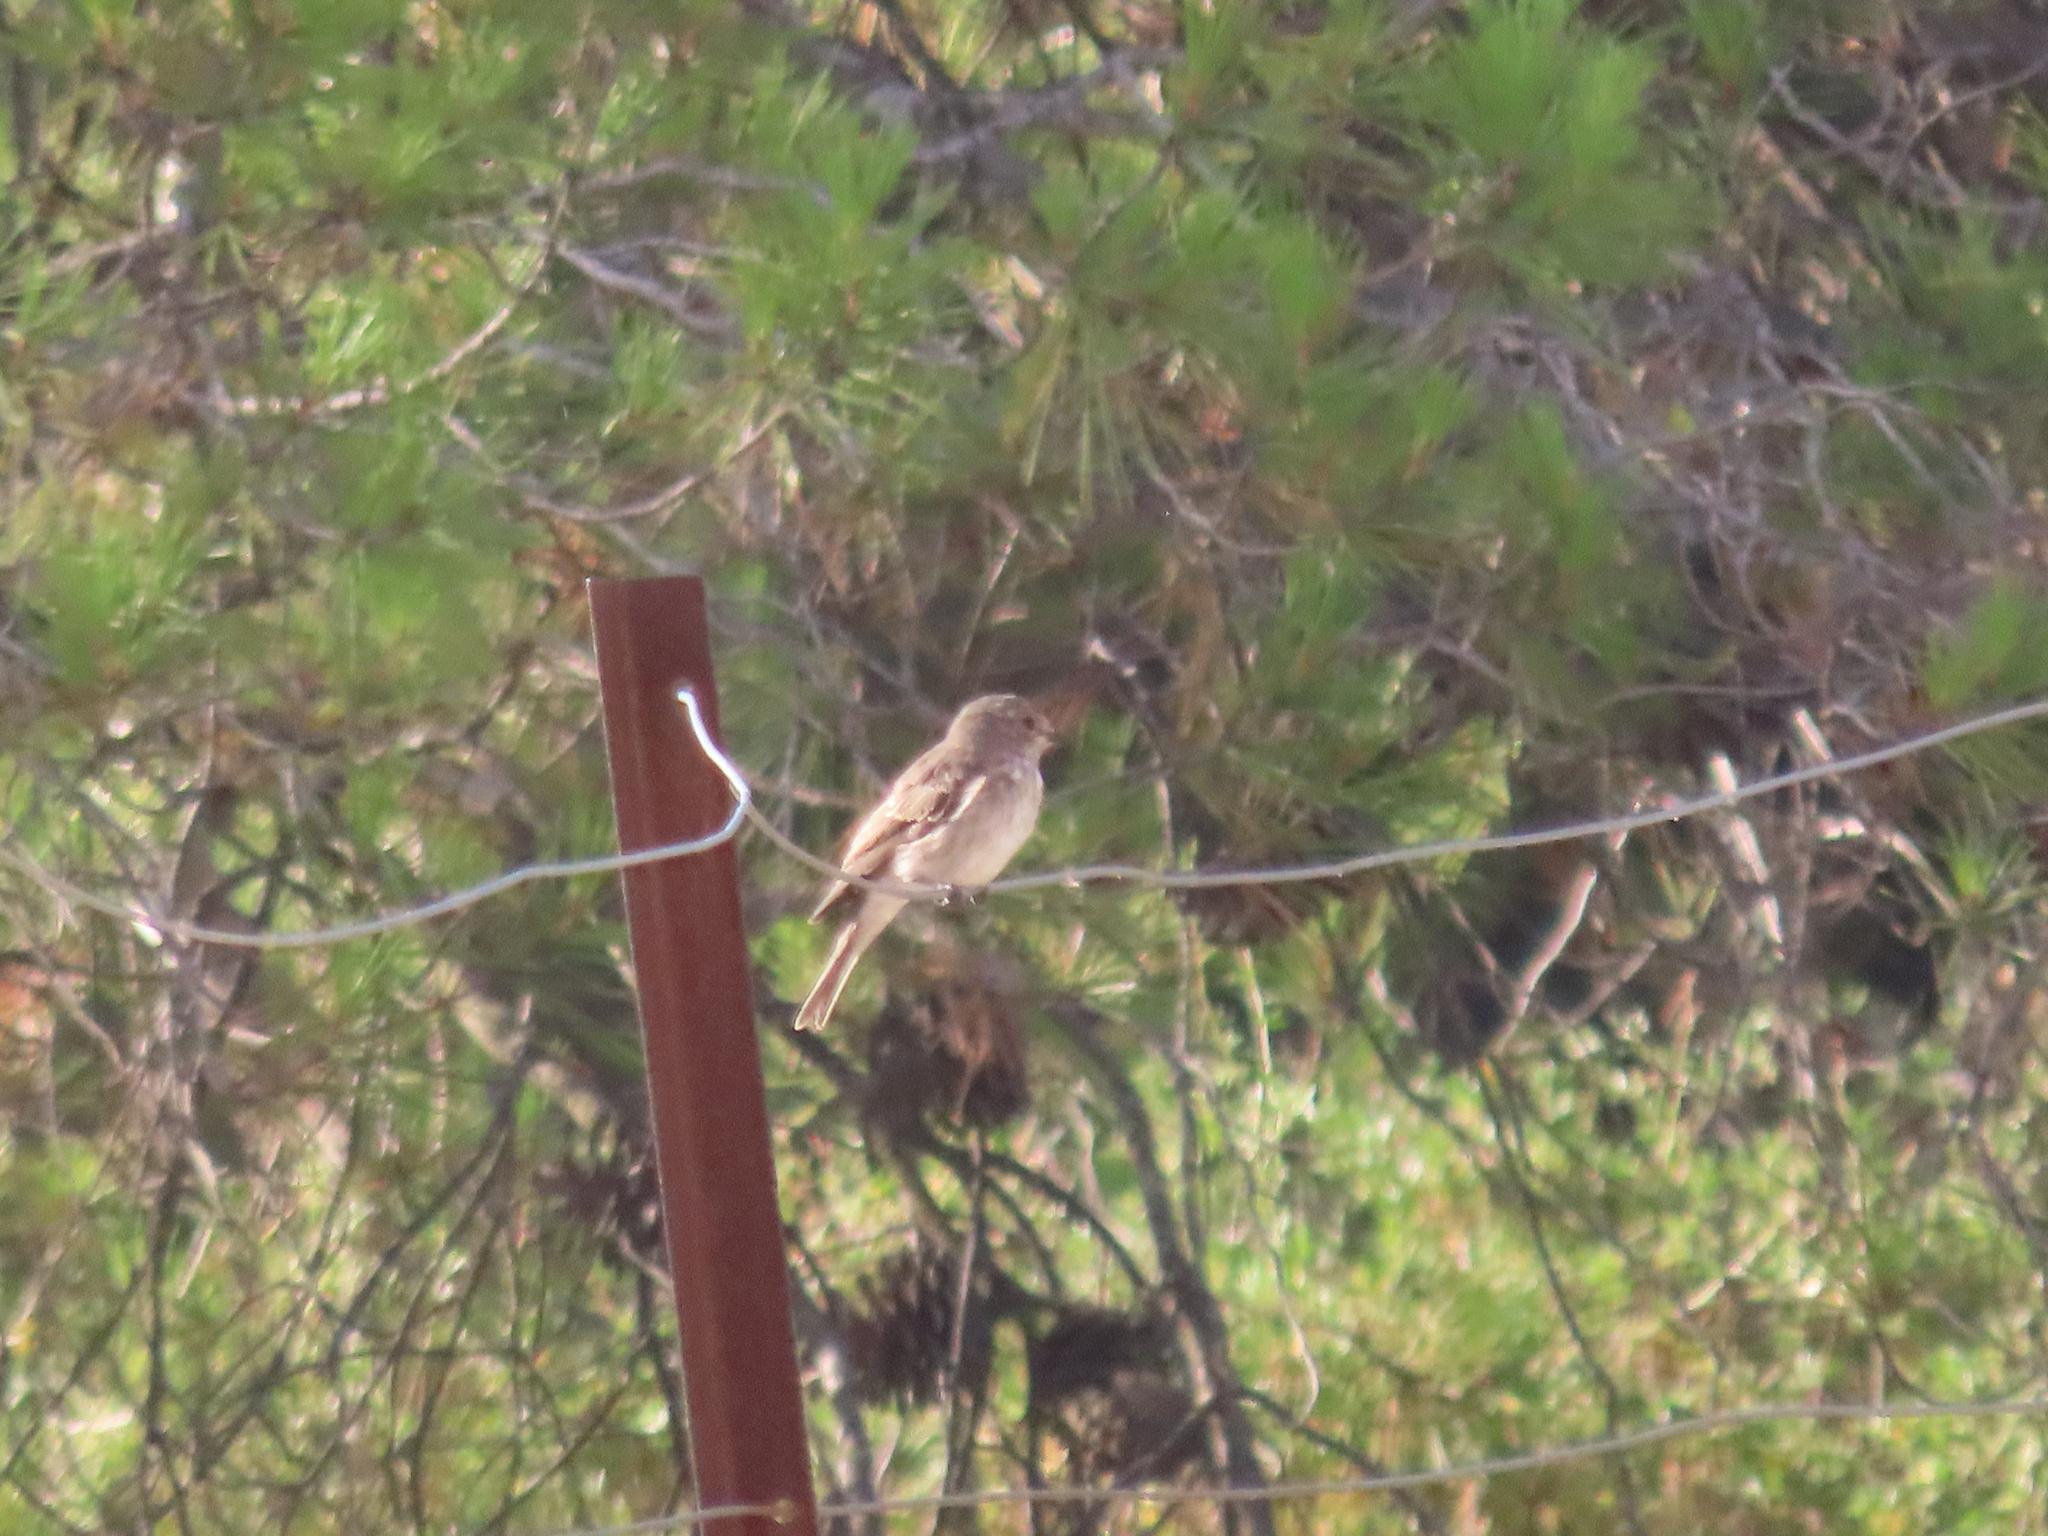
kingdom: Animalia
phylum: Chordata
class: Aves
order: Passeriformes
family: Muscicapidae
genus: Muscicapa
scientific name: Muscicapa striata
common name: Spotted flycatcher
